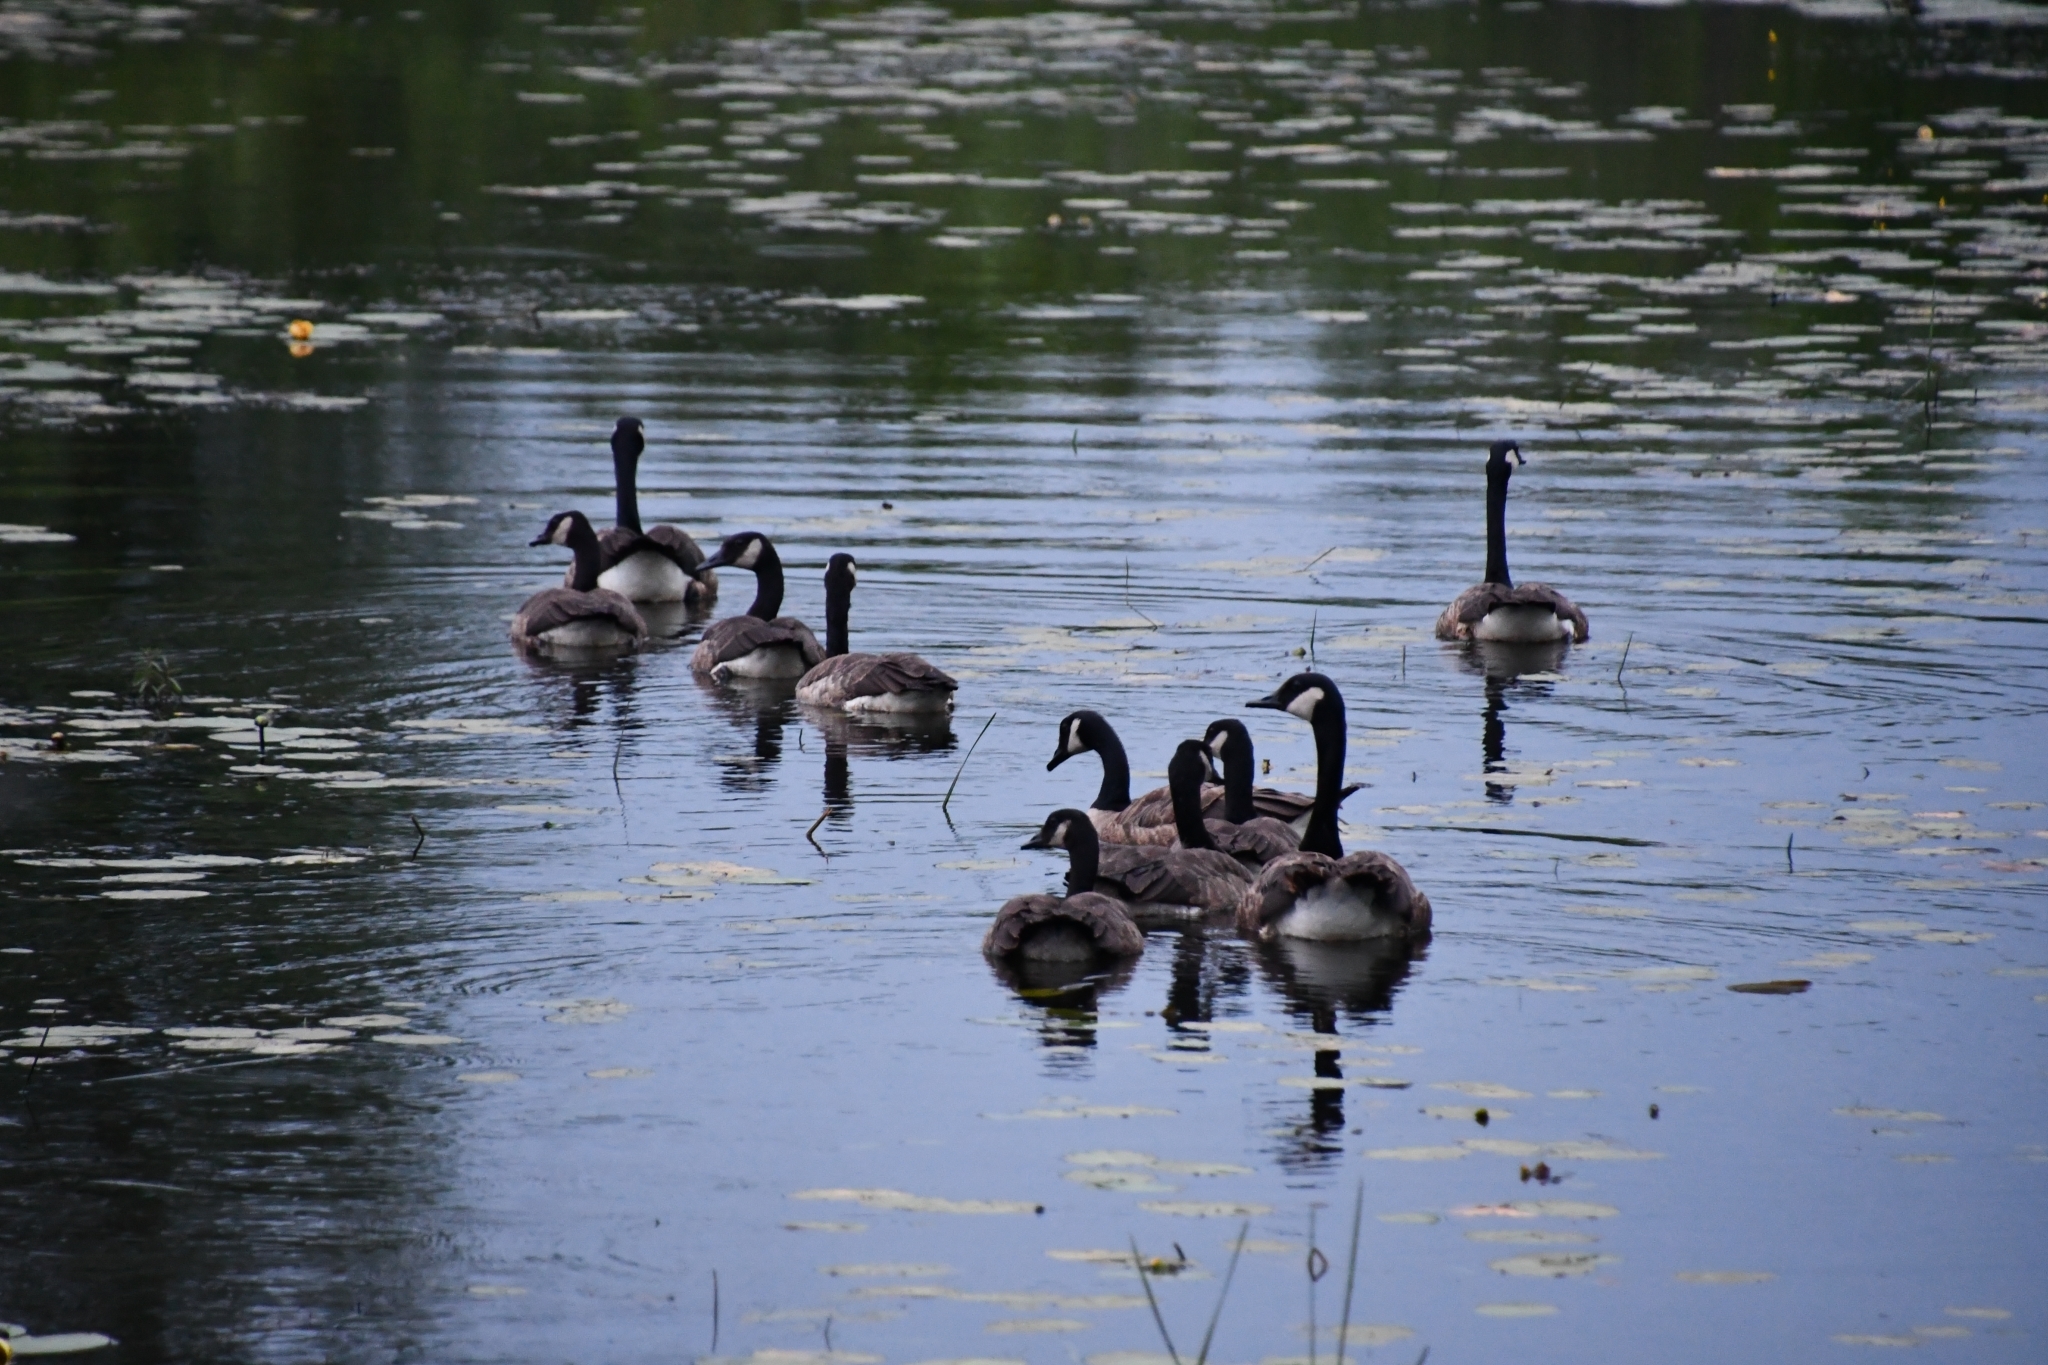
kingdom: Animalia
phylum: Chordata
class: Aves
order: Anseriformes
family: Anatidae
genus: Branta
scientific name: Branta canadensis
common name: Canada goose
